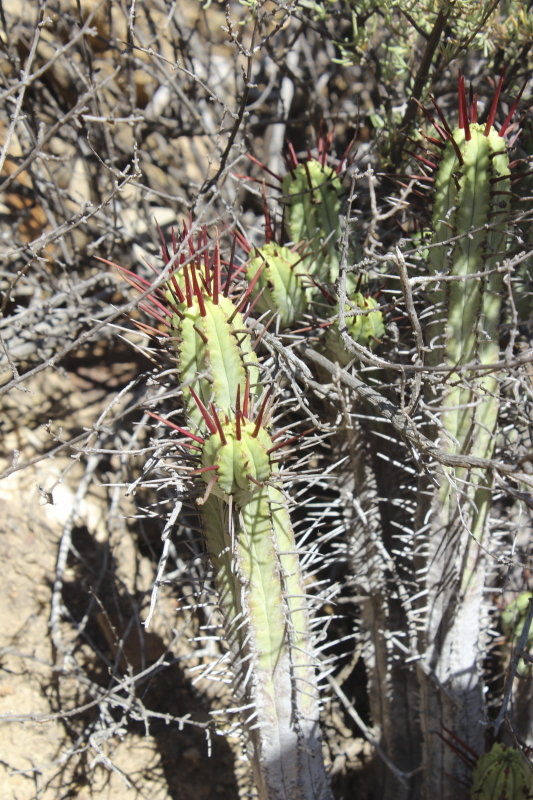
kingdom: Plantae
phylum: Tracheophyta
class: Magnoliopsida
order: Malpighiales
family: Euphorbiaceae
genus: Euphorbia
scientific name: Euphorbia heptagona
